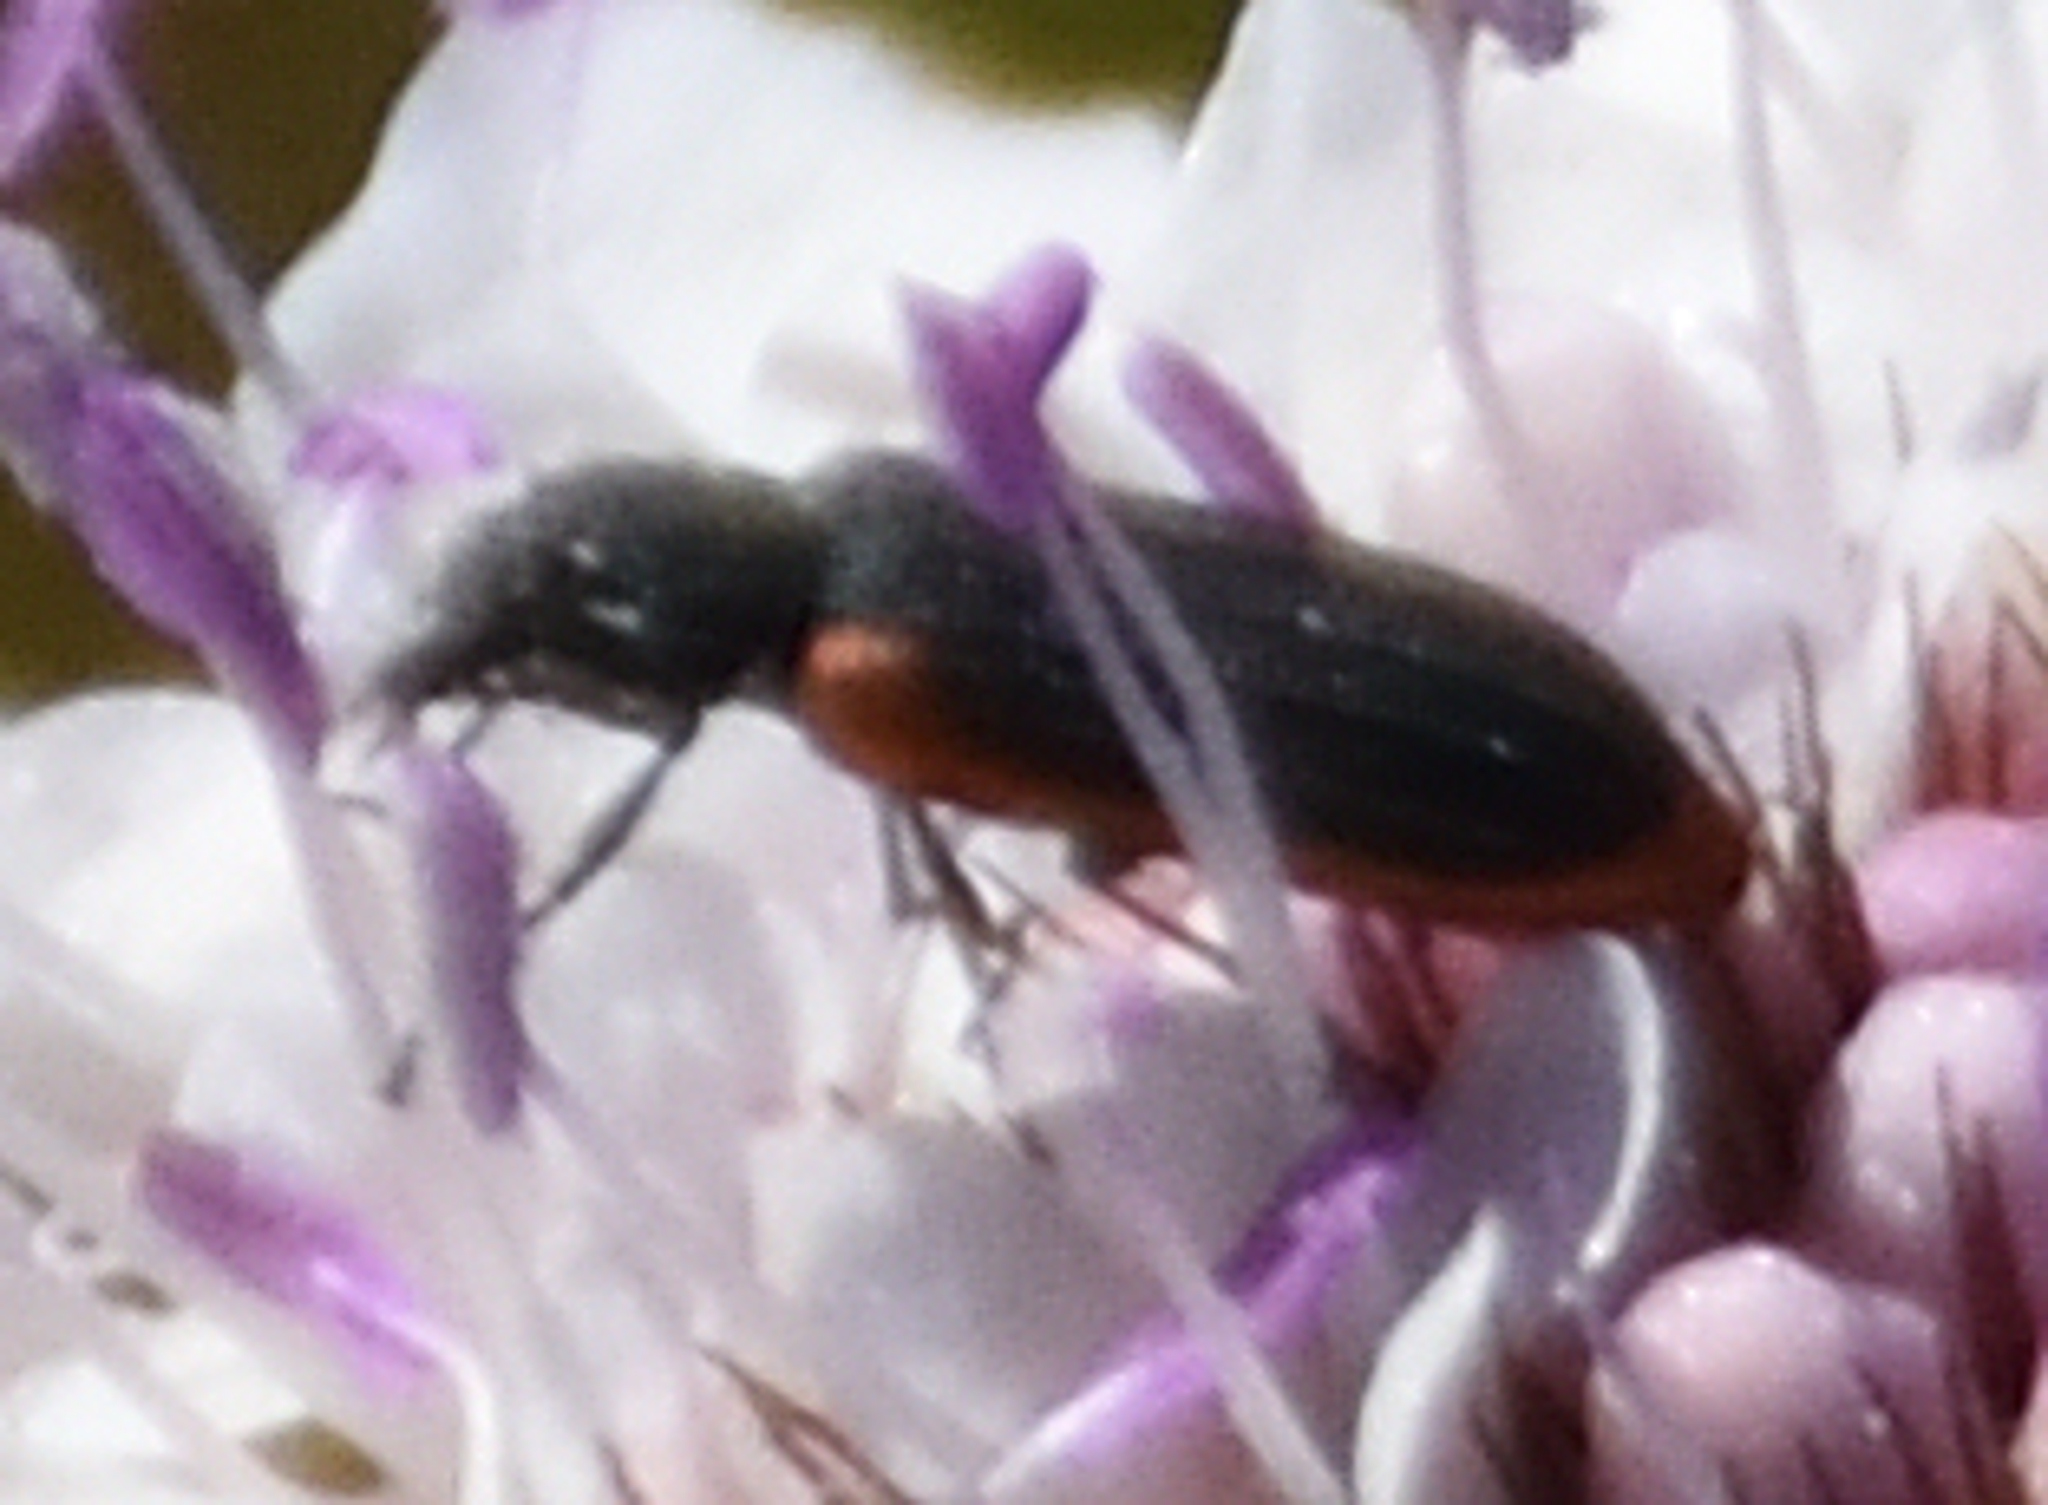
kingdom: Animalia
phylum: Arthropoda
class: Insecta
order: Coleoptera
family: Melyridae
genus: Melyris
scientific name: Melyris
